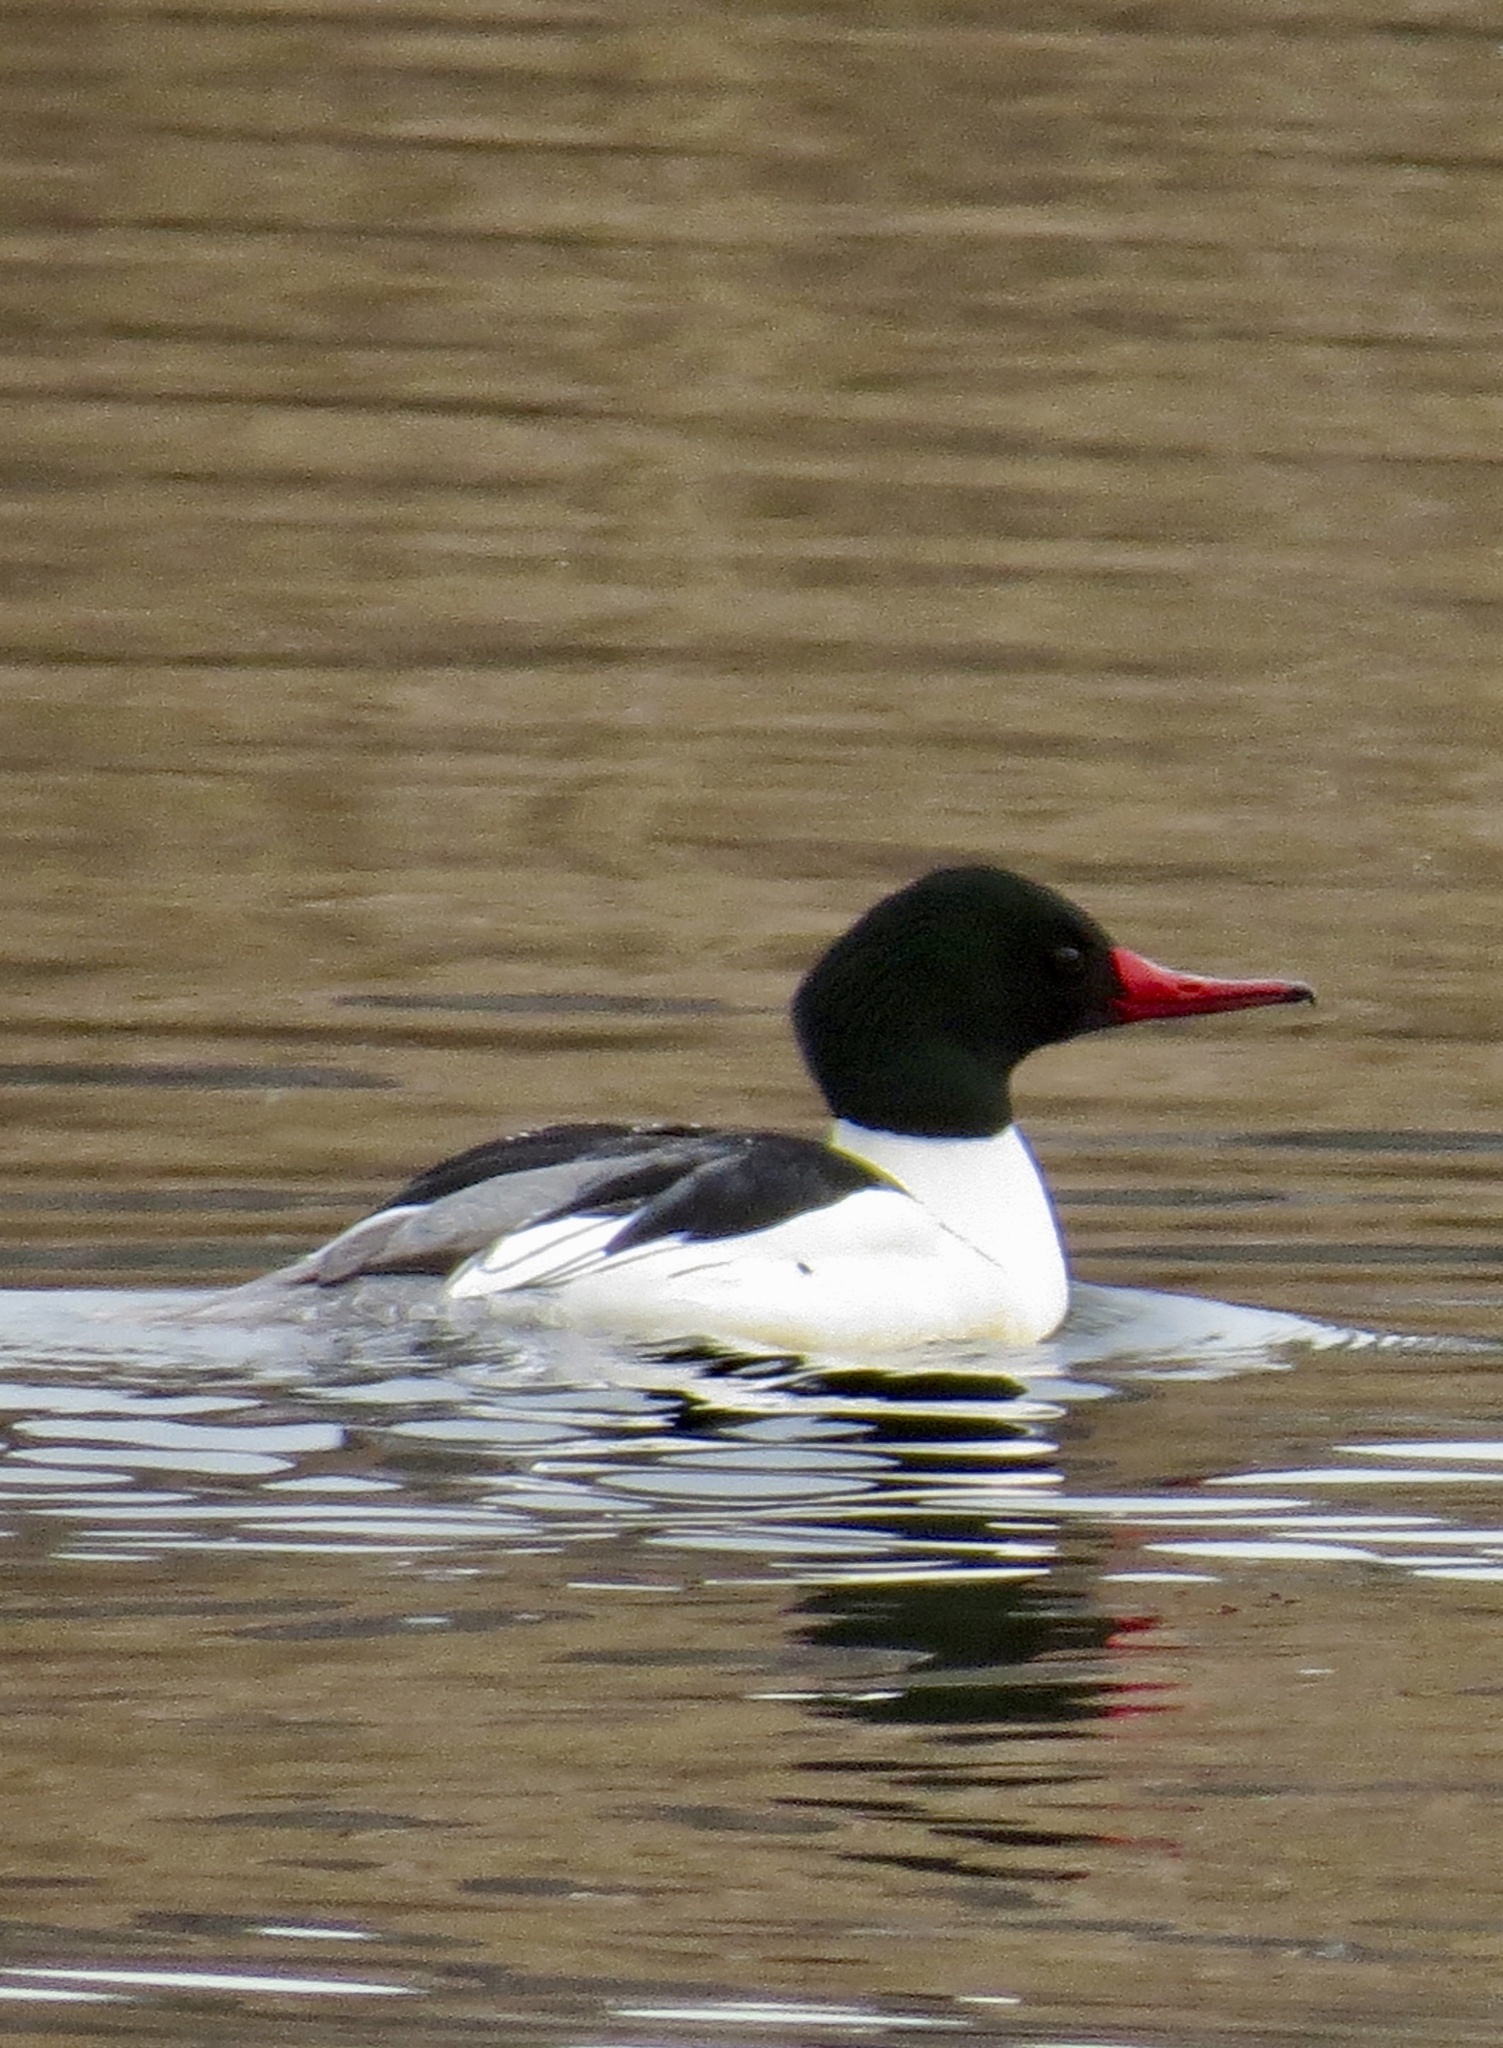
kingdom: Animalia
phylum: Chordata
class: Aves
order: Anseriformes
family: Anatidae
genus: Mergus
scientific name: Mergus merganser
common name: Common merganser
